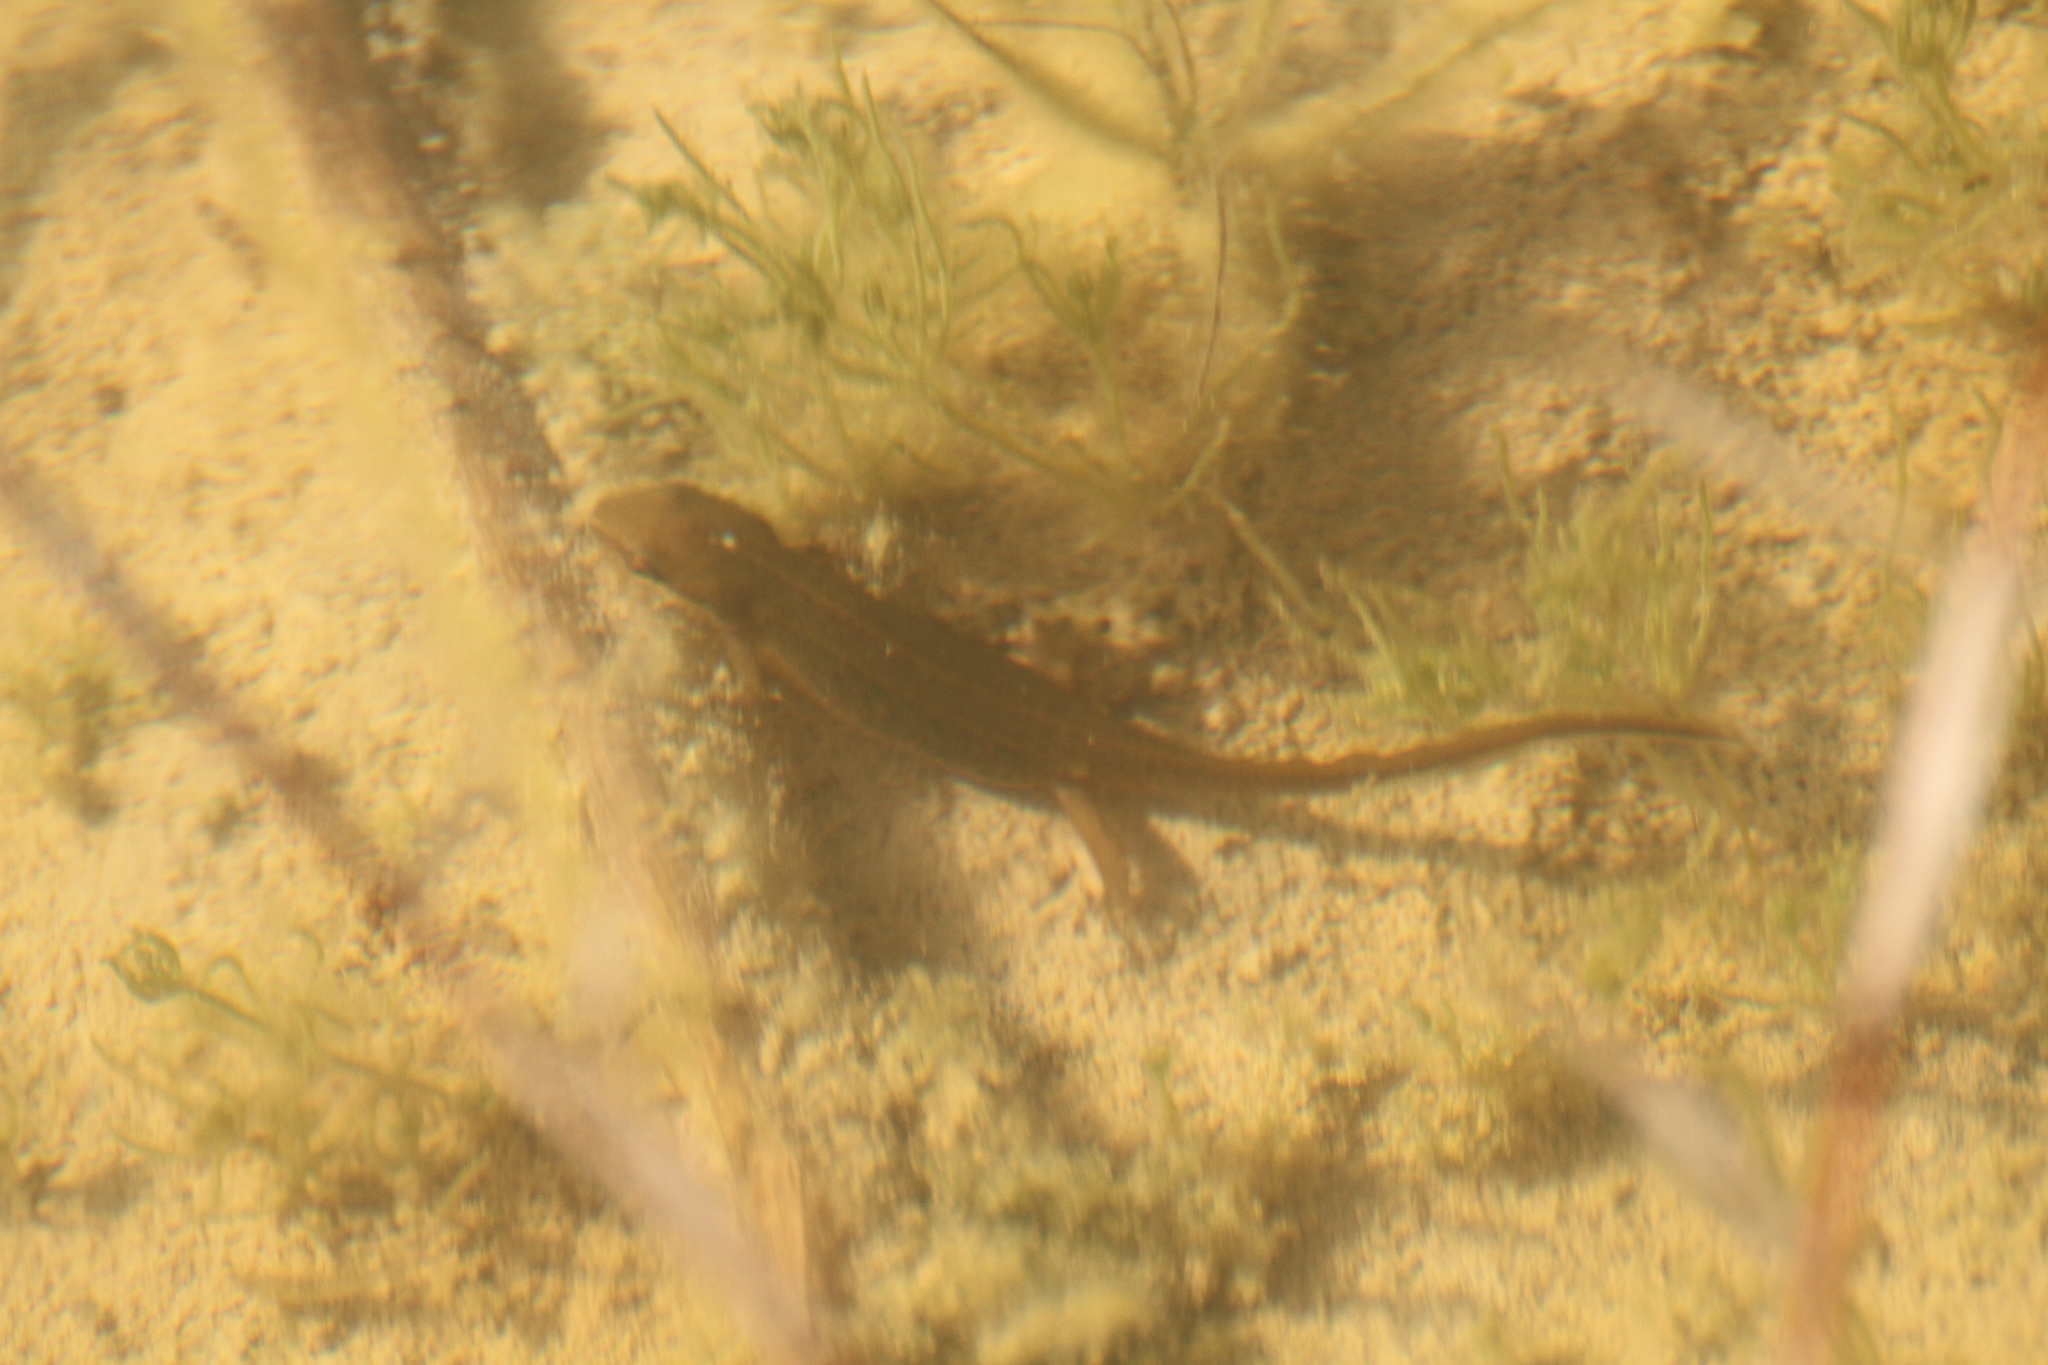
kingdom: Animalia
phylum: Chordata
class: Amphibia
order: Caudata
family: Salamandridae
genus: Lissotriton
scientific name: Lissotriton helveticus
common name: Palmate newt
